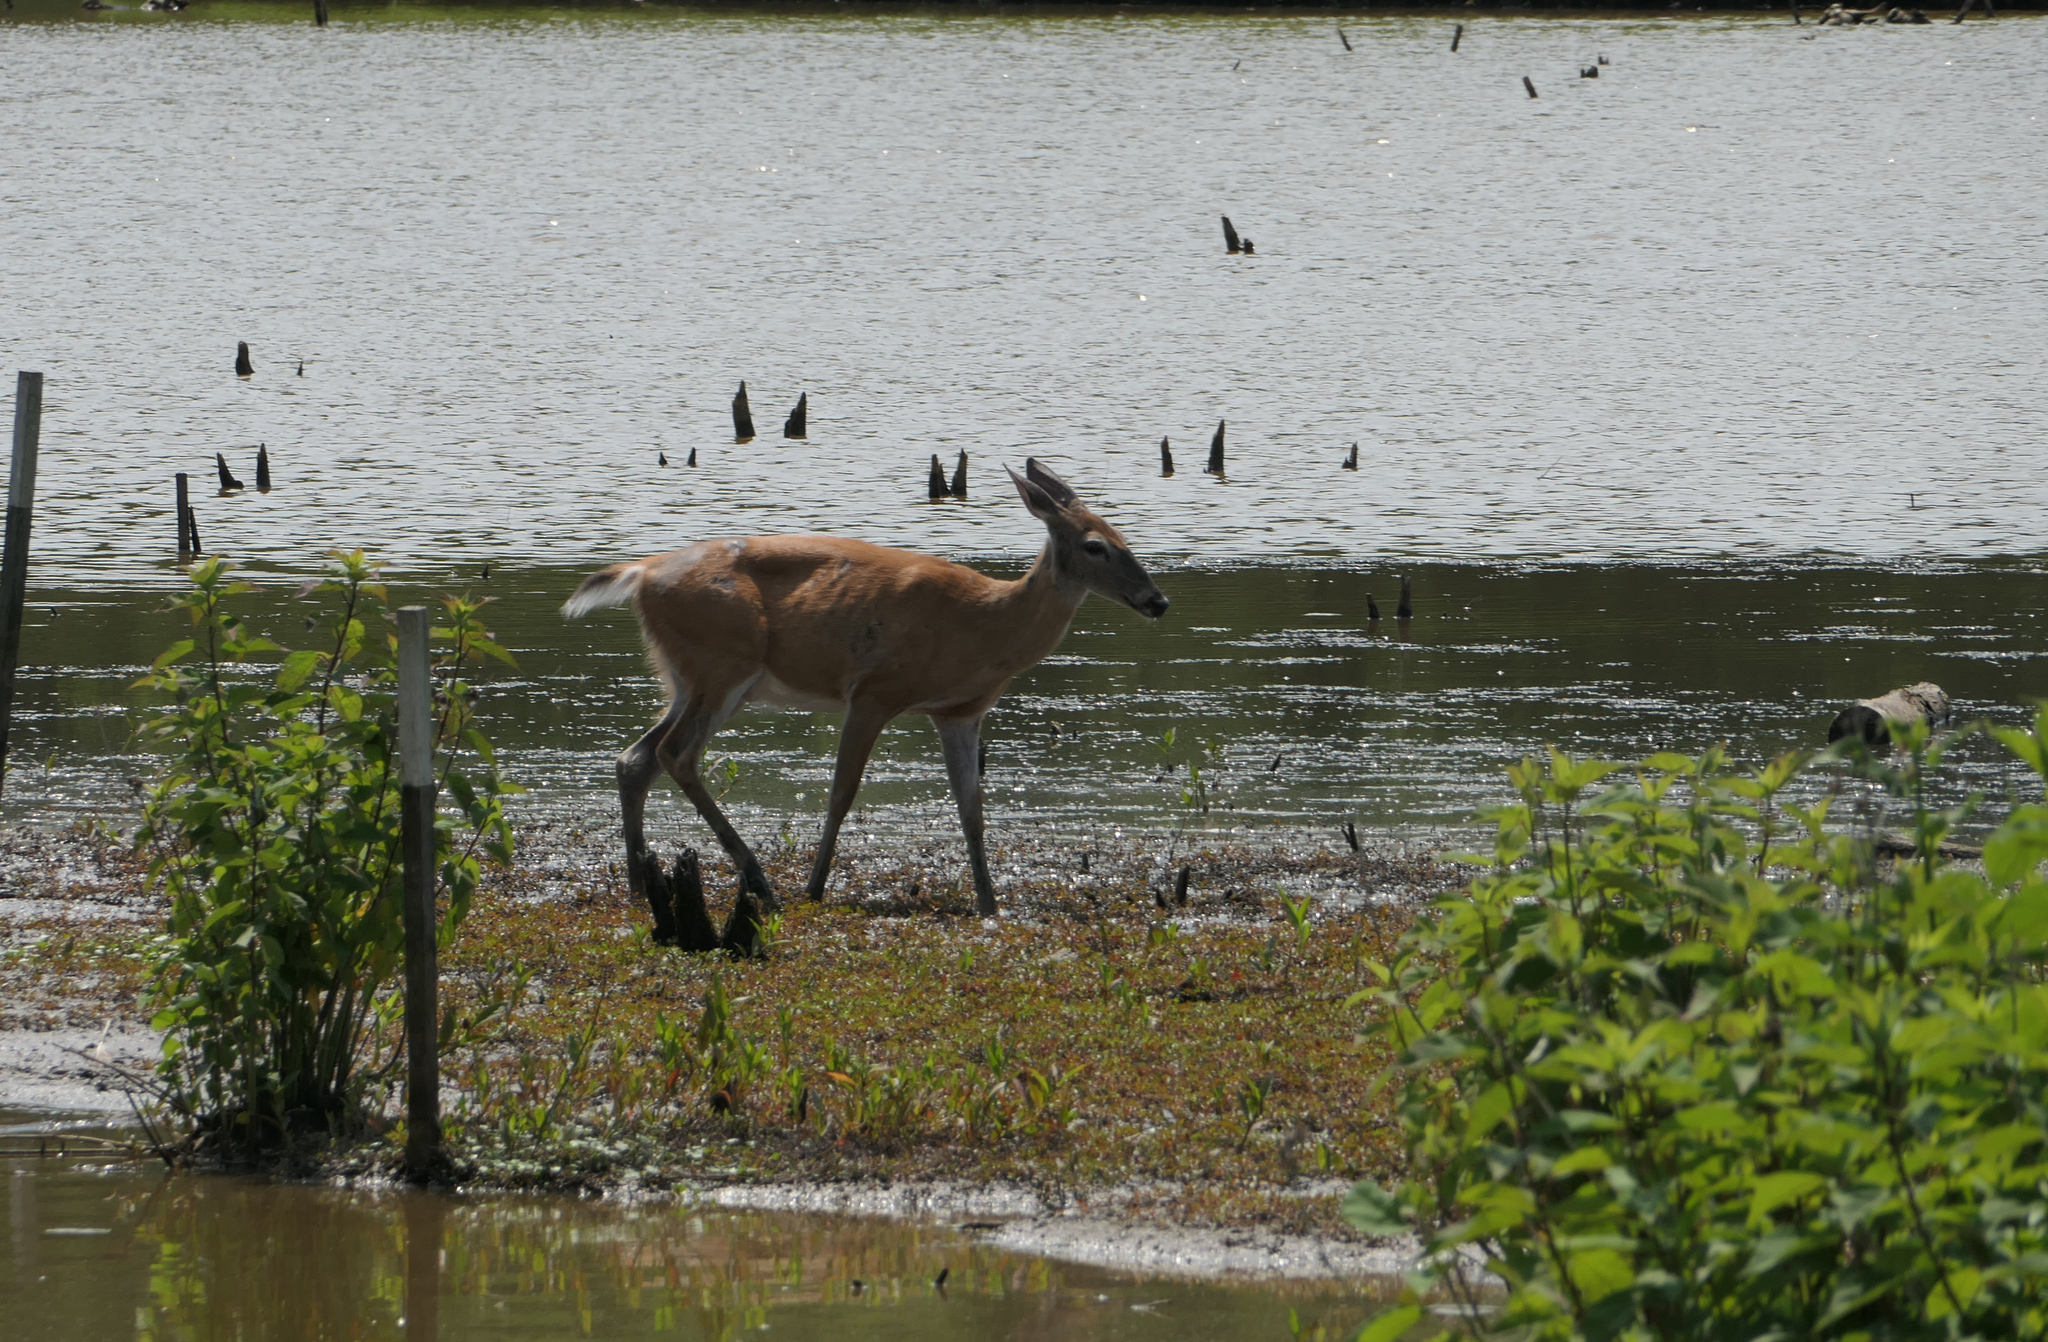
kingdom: Animalia
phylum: Chordata
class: Mammalia
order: Artiodactyla
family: Cervidae
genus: Odocoileus
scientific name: Odocoileus virginianus
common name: White-tailed deer
